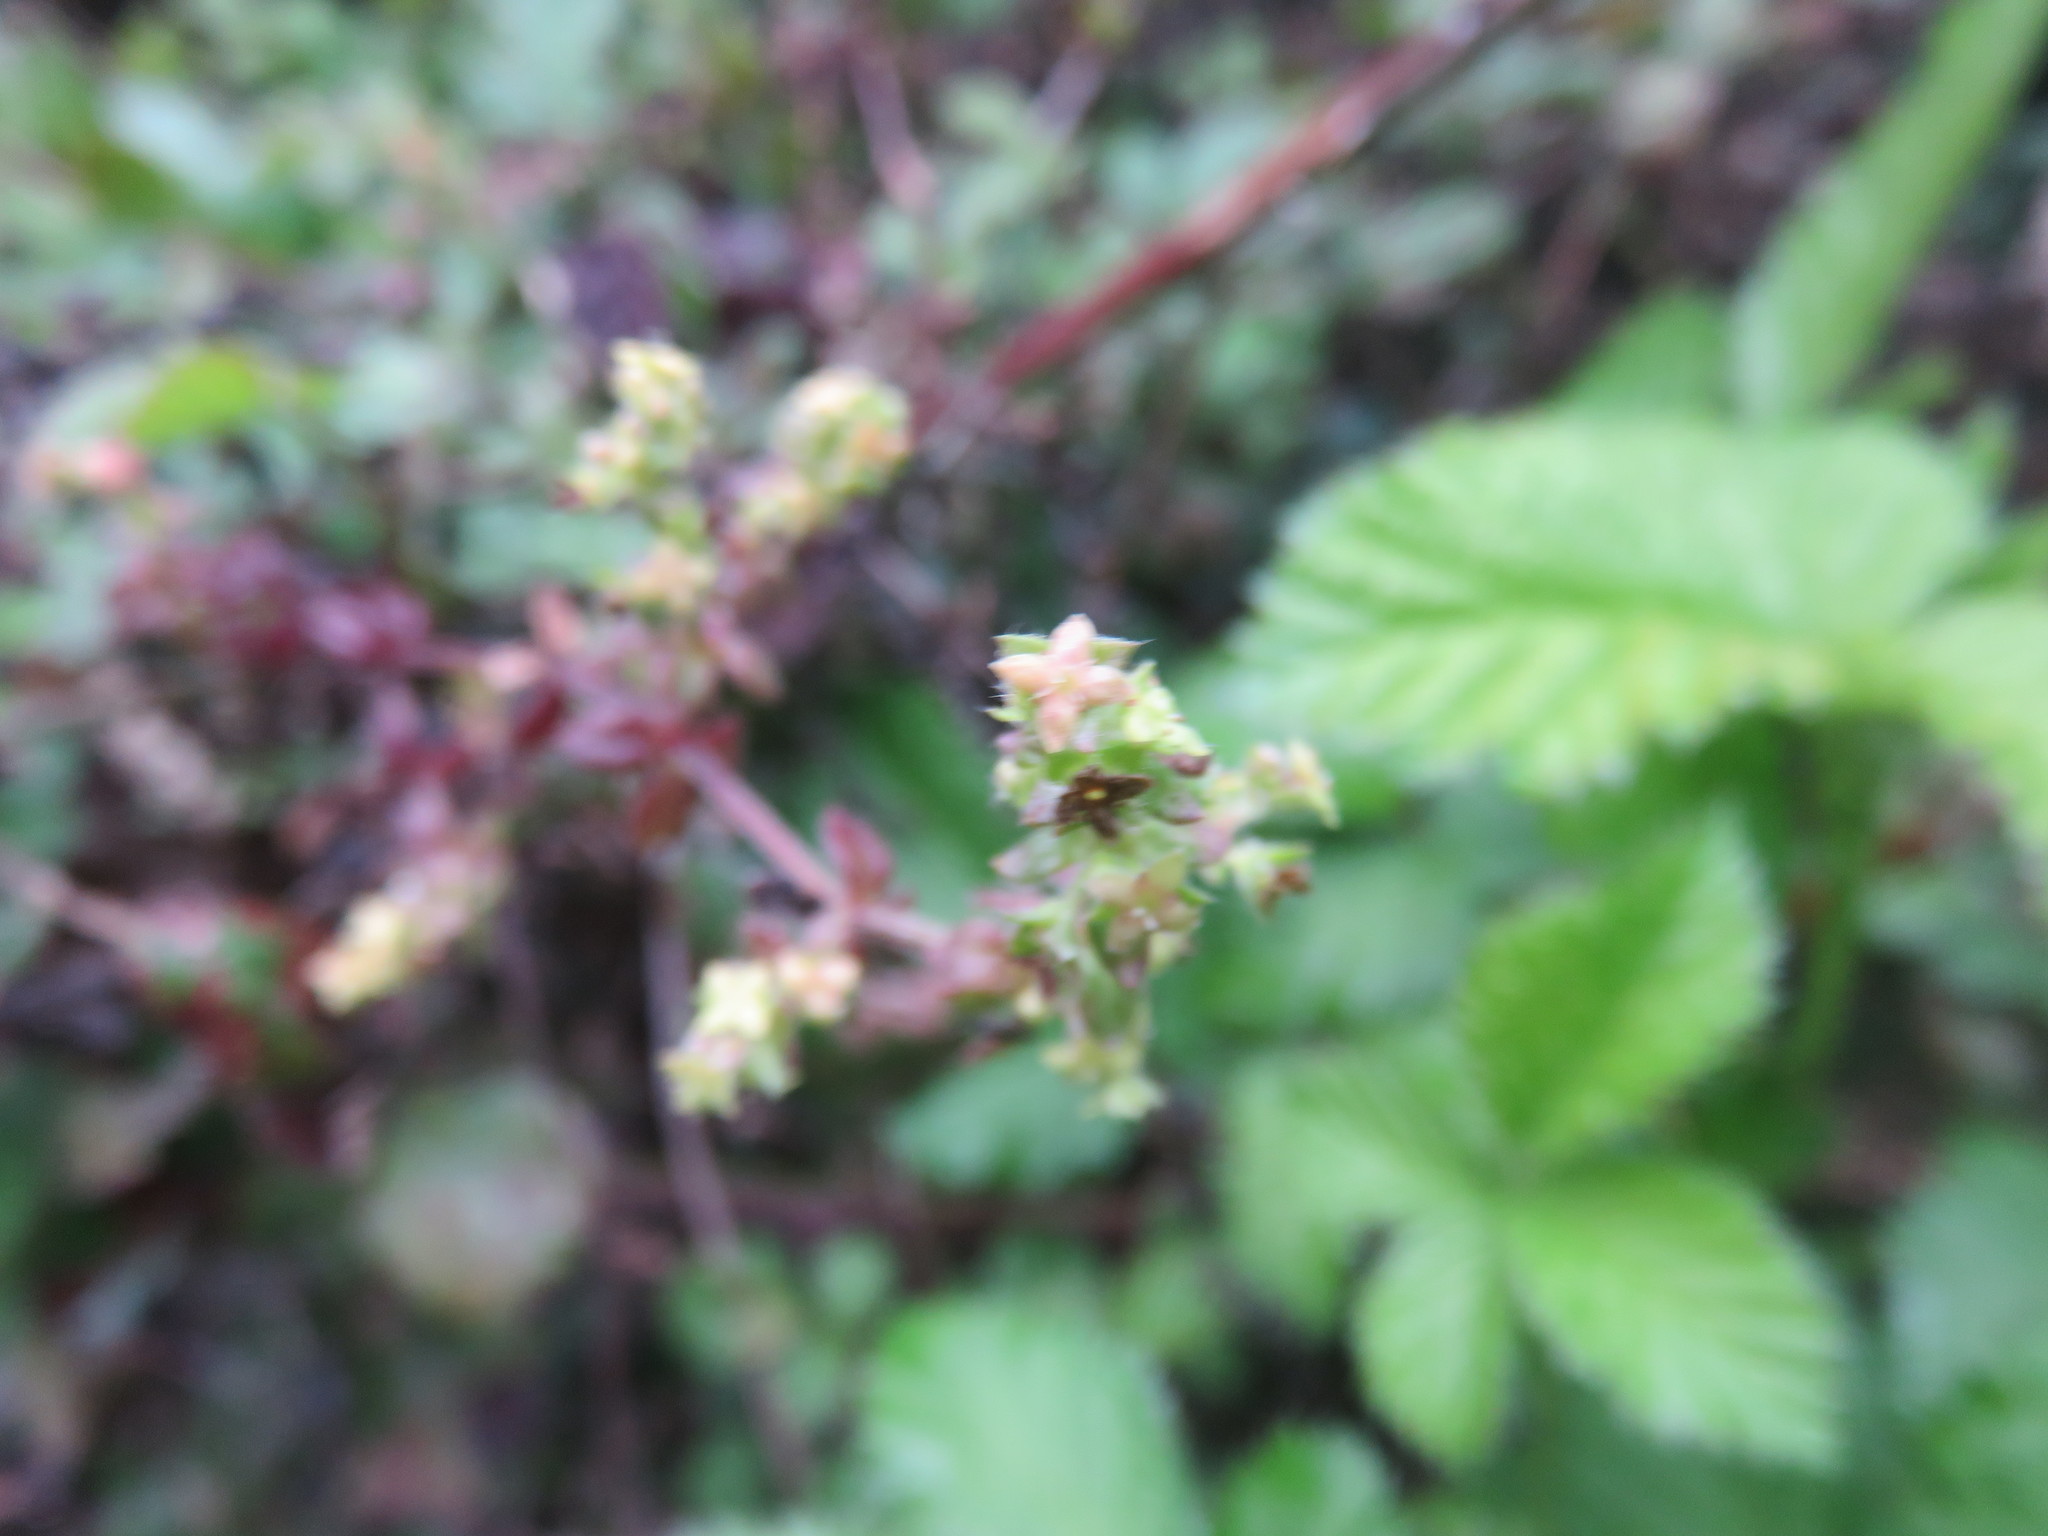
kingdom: Plantae
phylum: Tracheophyta
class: Magnoliopsida
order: Gentianales
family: Rubiaceae
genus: Galium
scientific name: Galium hypocarpium
